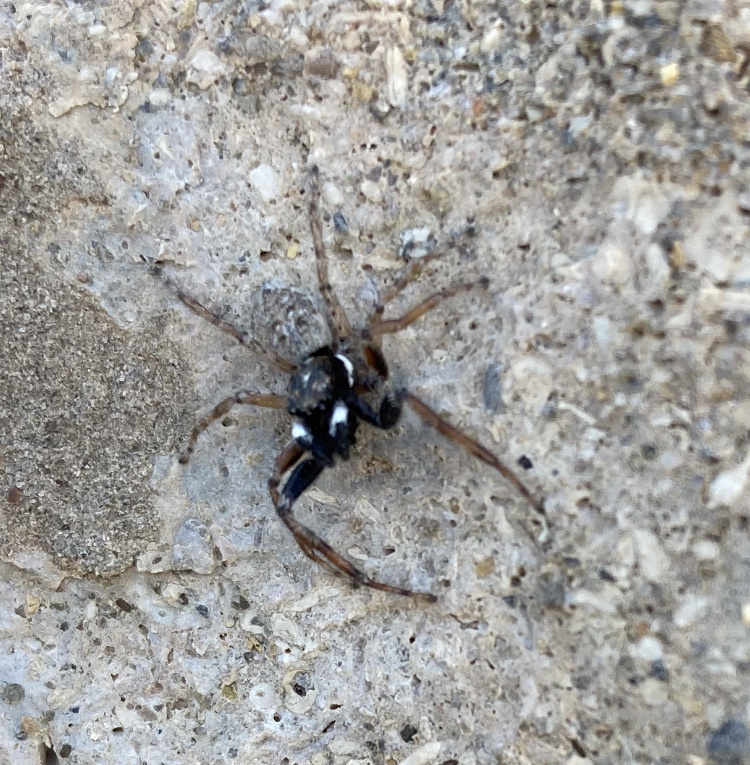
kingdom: Animalia
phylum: Arthropoda
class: Arachnida
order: Araneae
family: Salticidae
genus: Menemerus
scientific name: Menemerus semilimbatus
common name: Jumping spider
